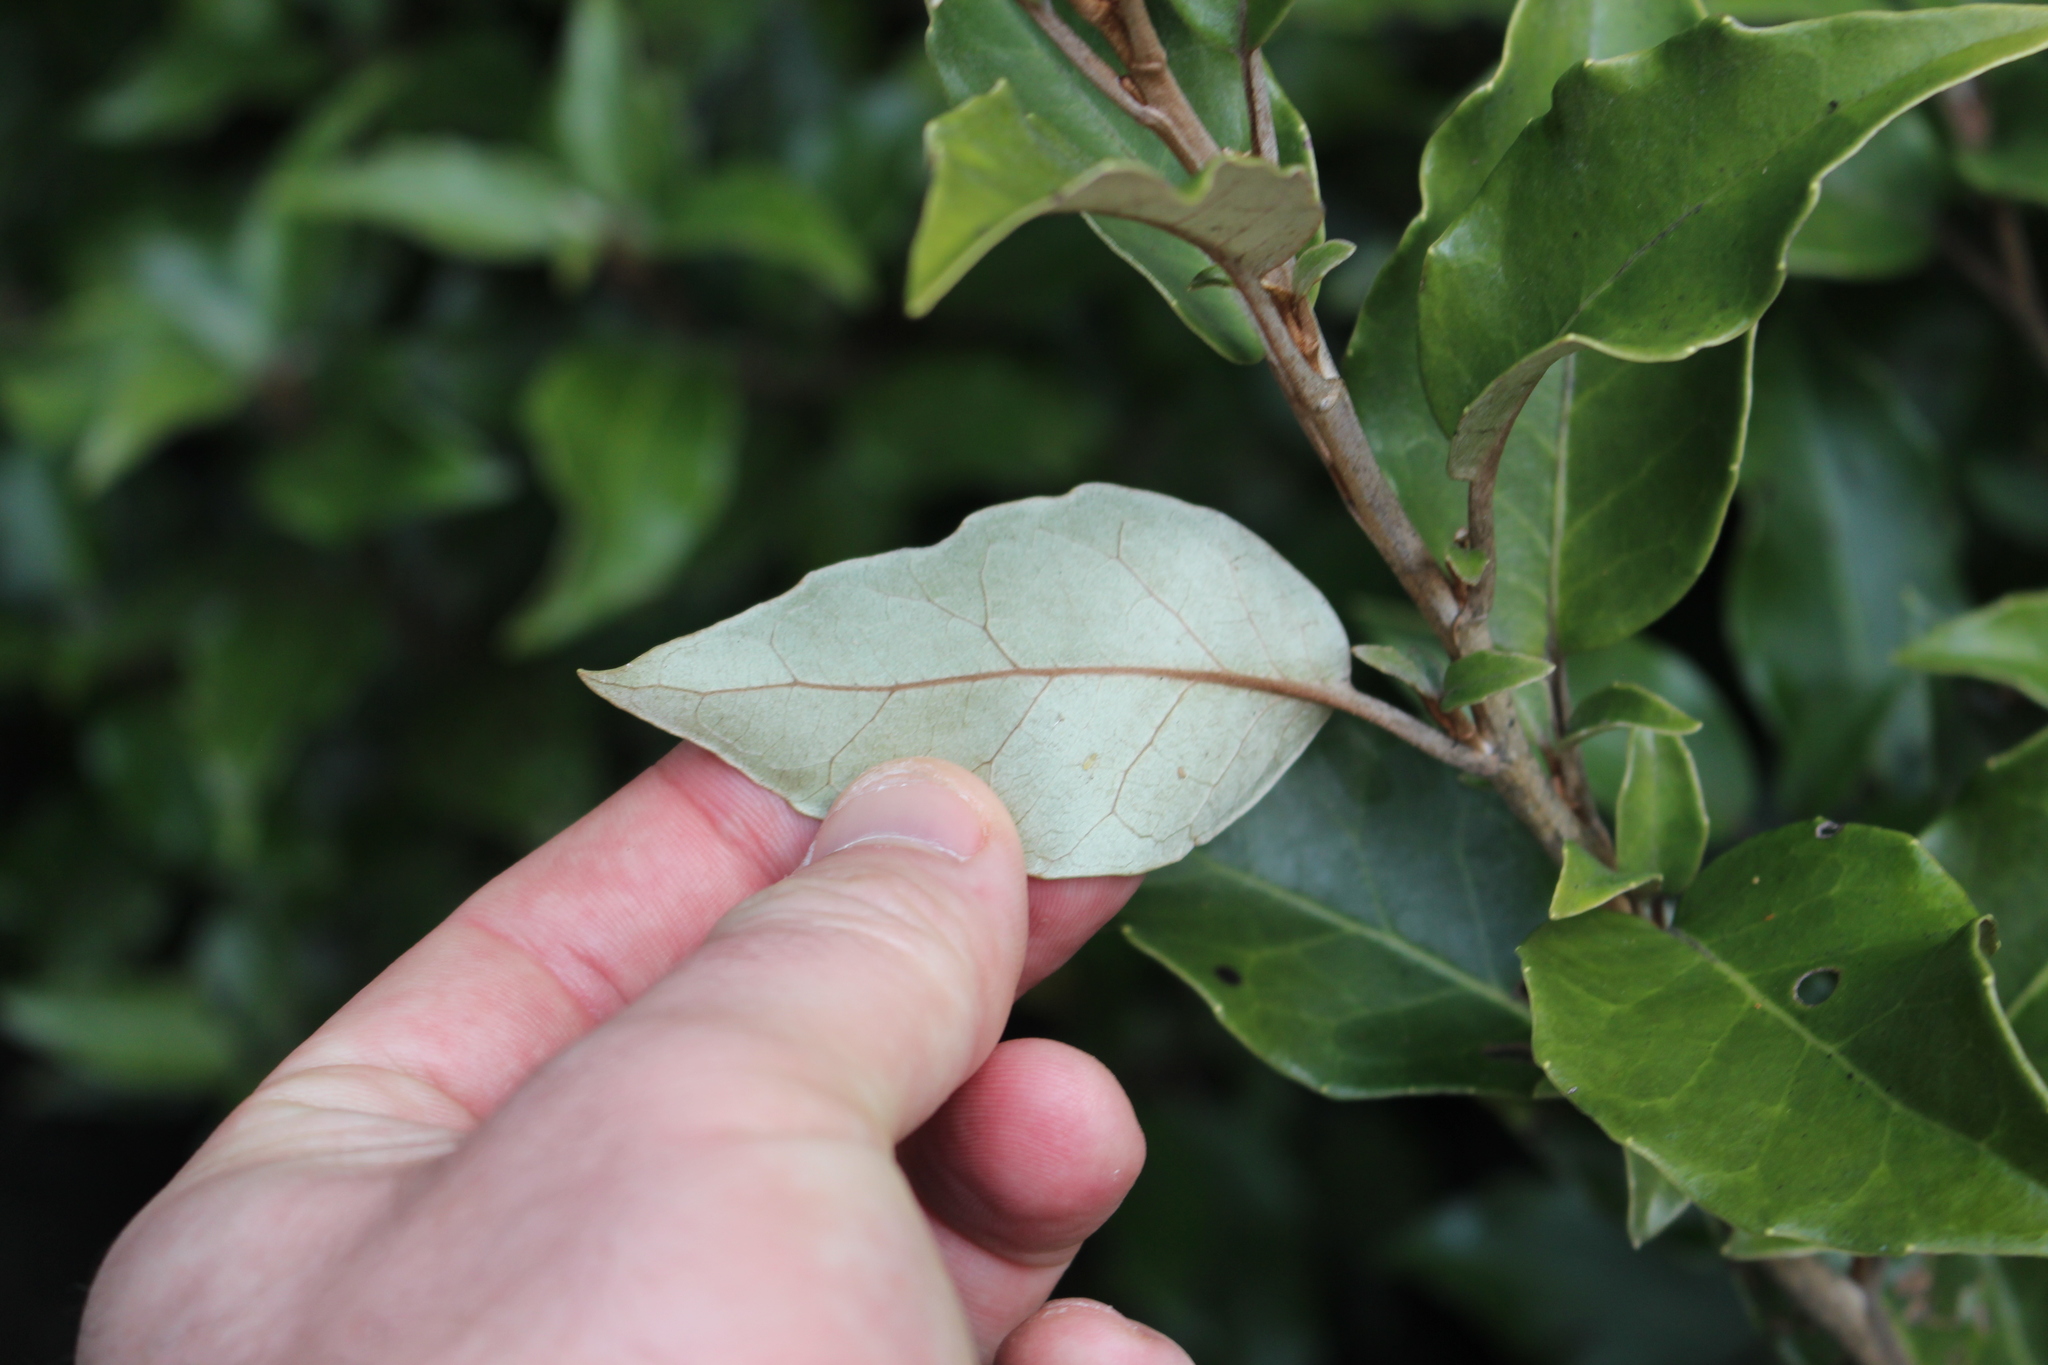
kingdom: Plantae
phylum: Tracheophyta
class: Magnoliopsida
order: Asterales
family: Asteraceae
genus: Olearia
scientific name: Olearia arborescens
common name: Glossy tree daisy
